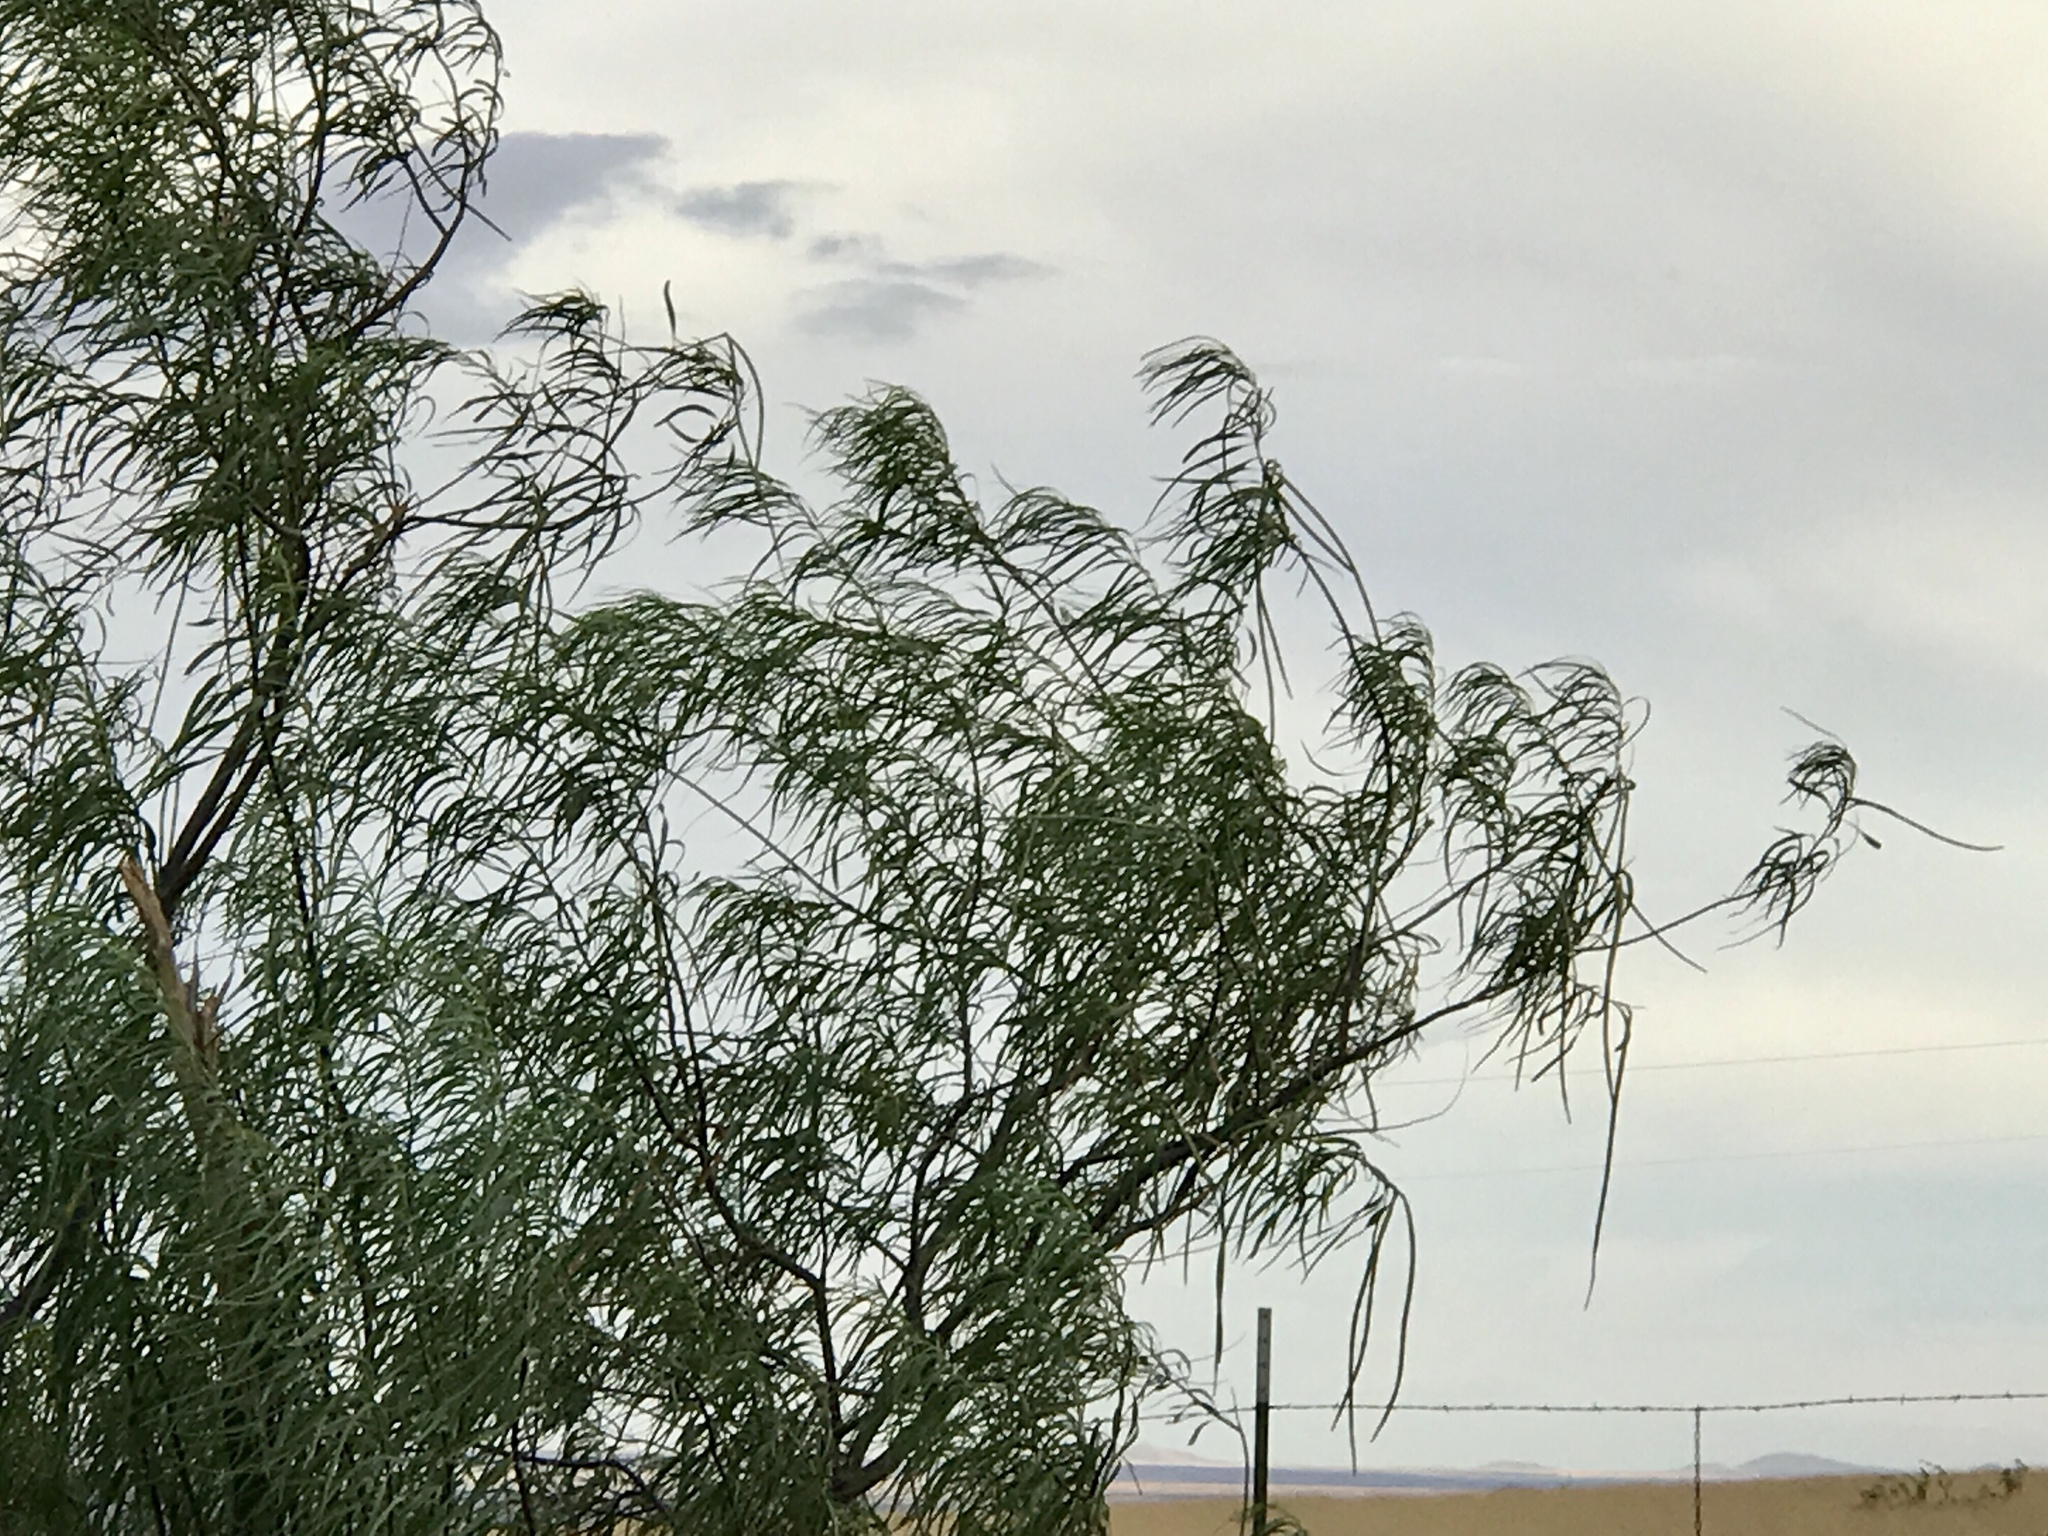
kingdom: Plantae
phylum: Tracheophyta
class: Magnoliopsida
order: Lamiales
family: Bignoniaceae
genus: Chilopsis
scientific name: Chilopsis linearis
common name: Desert-willow
